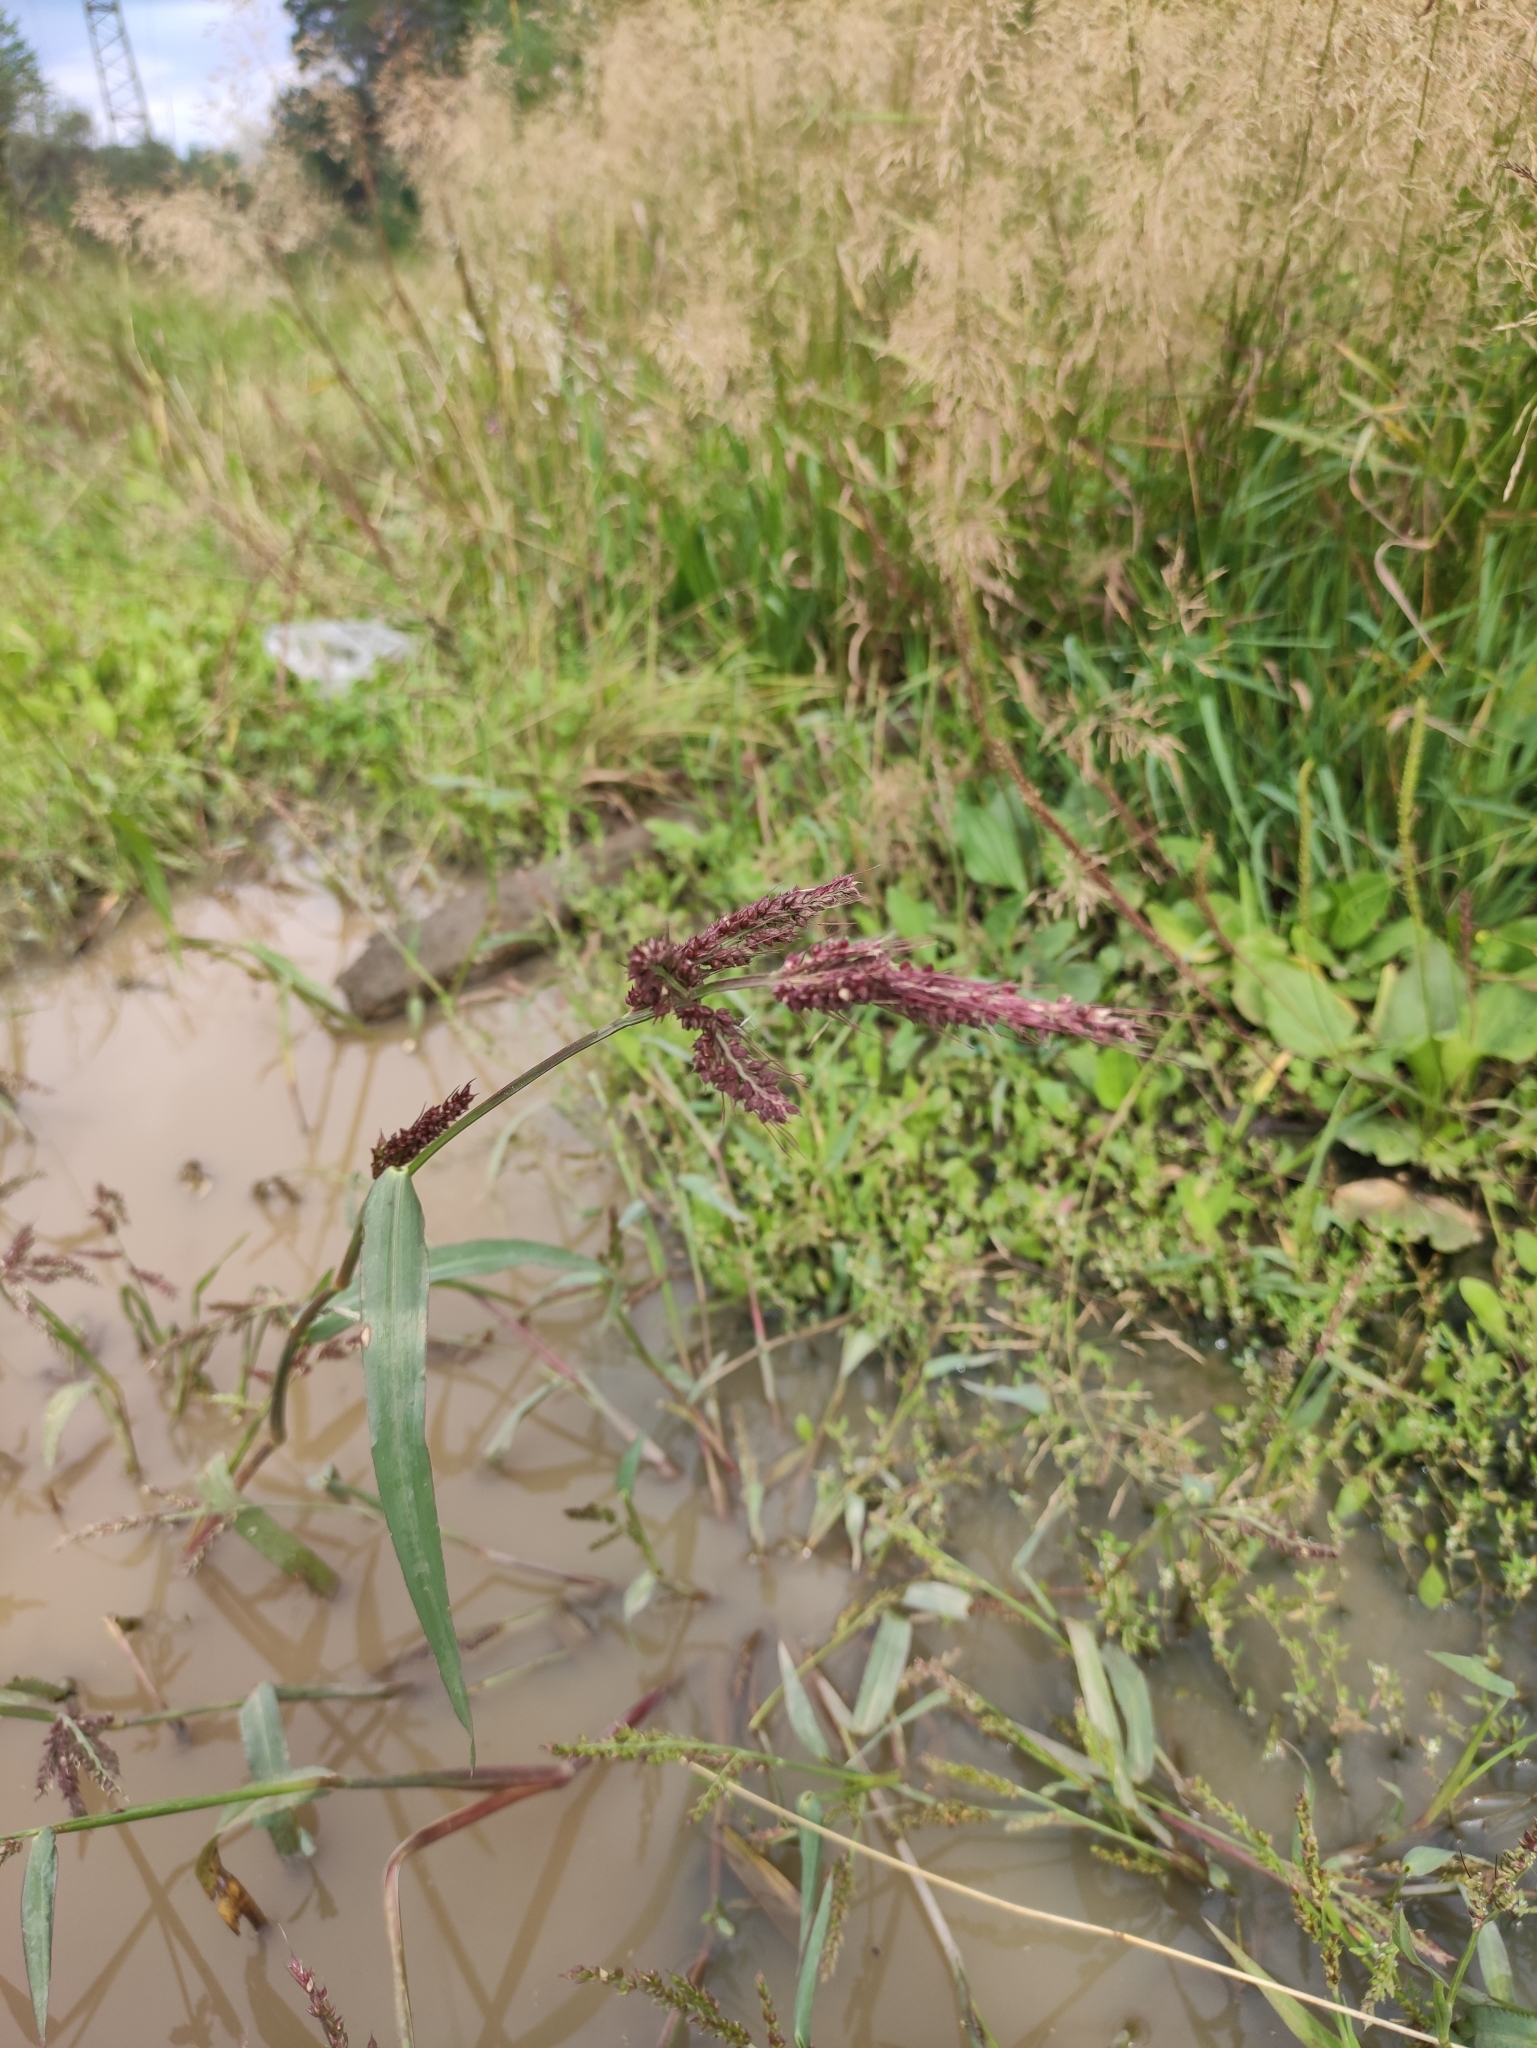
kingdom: Plantae
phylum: Tracheophyta
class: Liliopsida
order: Poales
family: Poaceae
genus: Echinochloa
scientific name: Echinochloa crus-galli
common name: Cockspur
